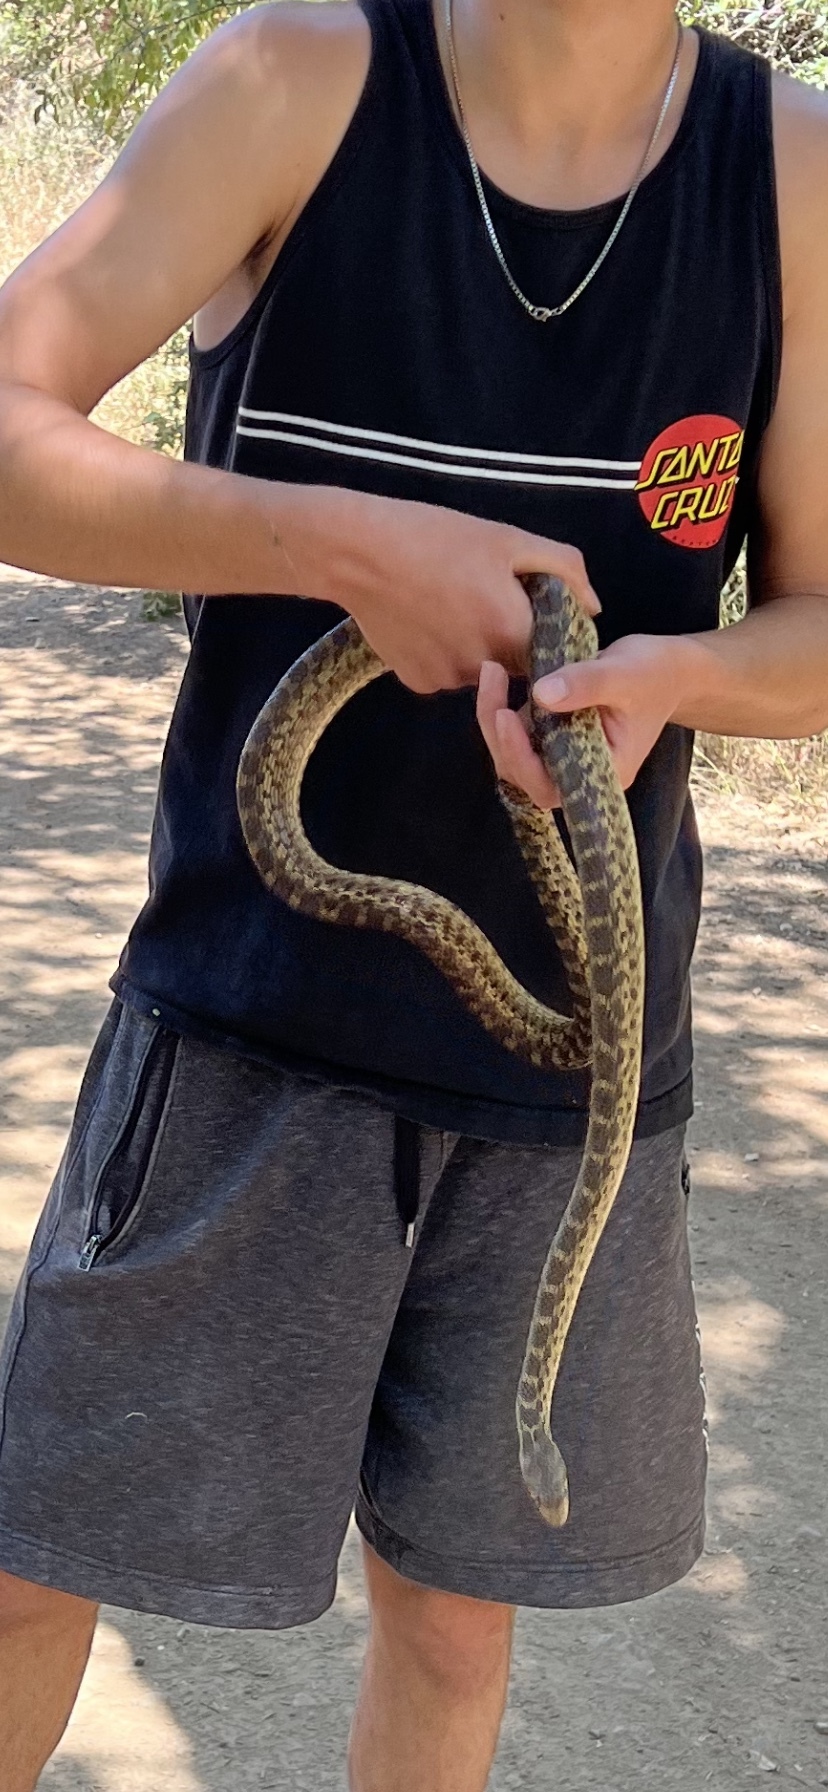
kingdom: Animalia
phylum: Chordata
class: Squamata
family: Colubridae
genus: Pituophis
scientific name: Pituophis catenifer
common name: Gopher snake
